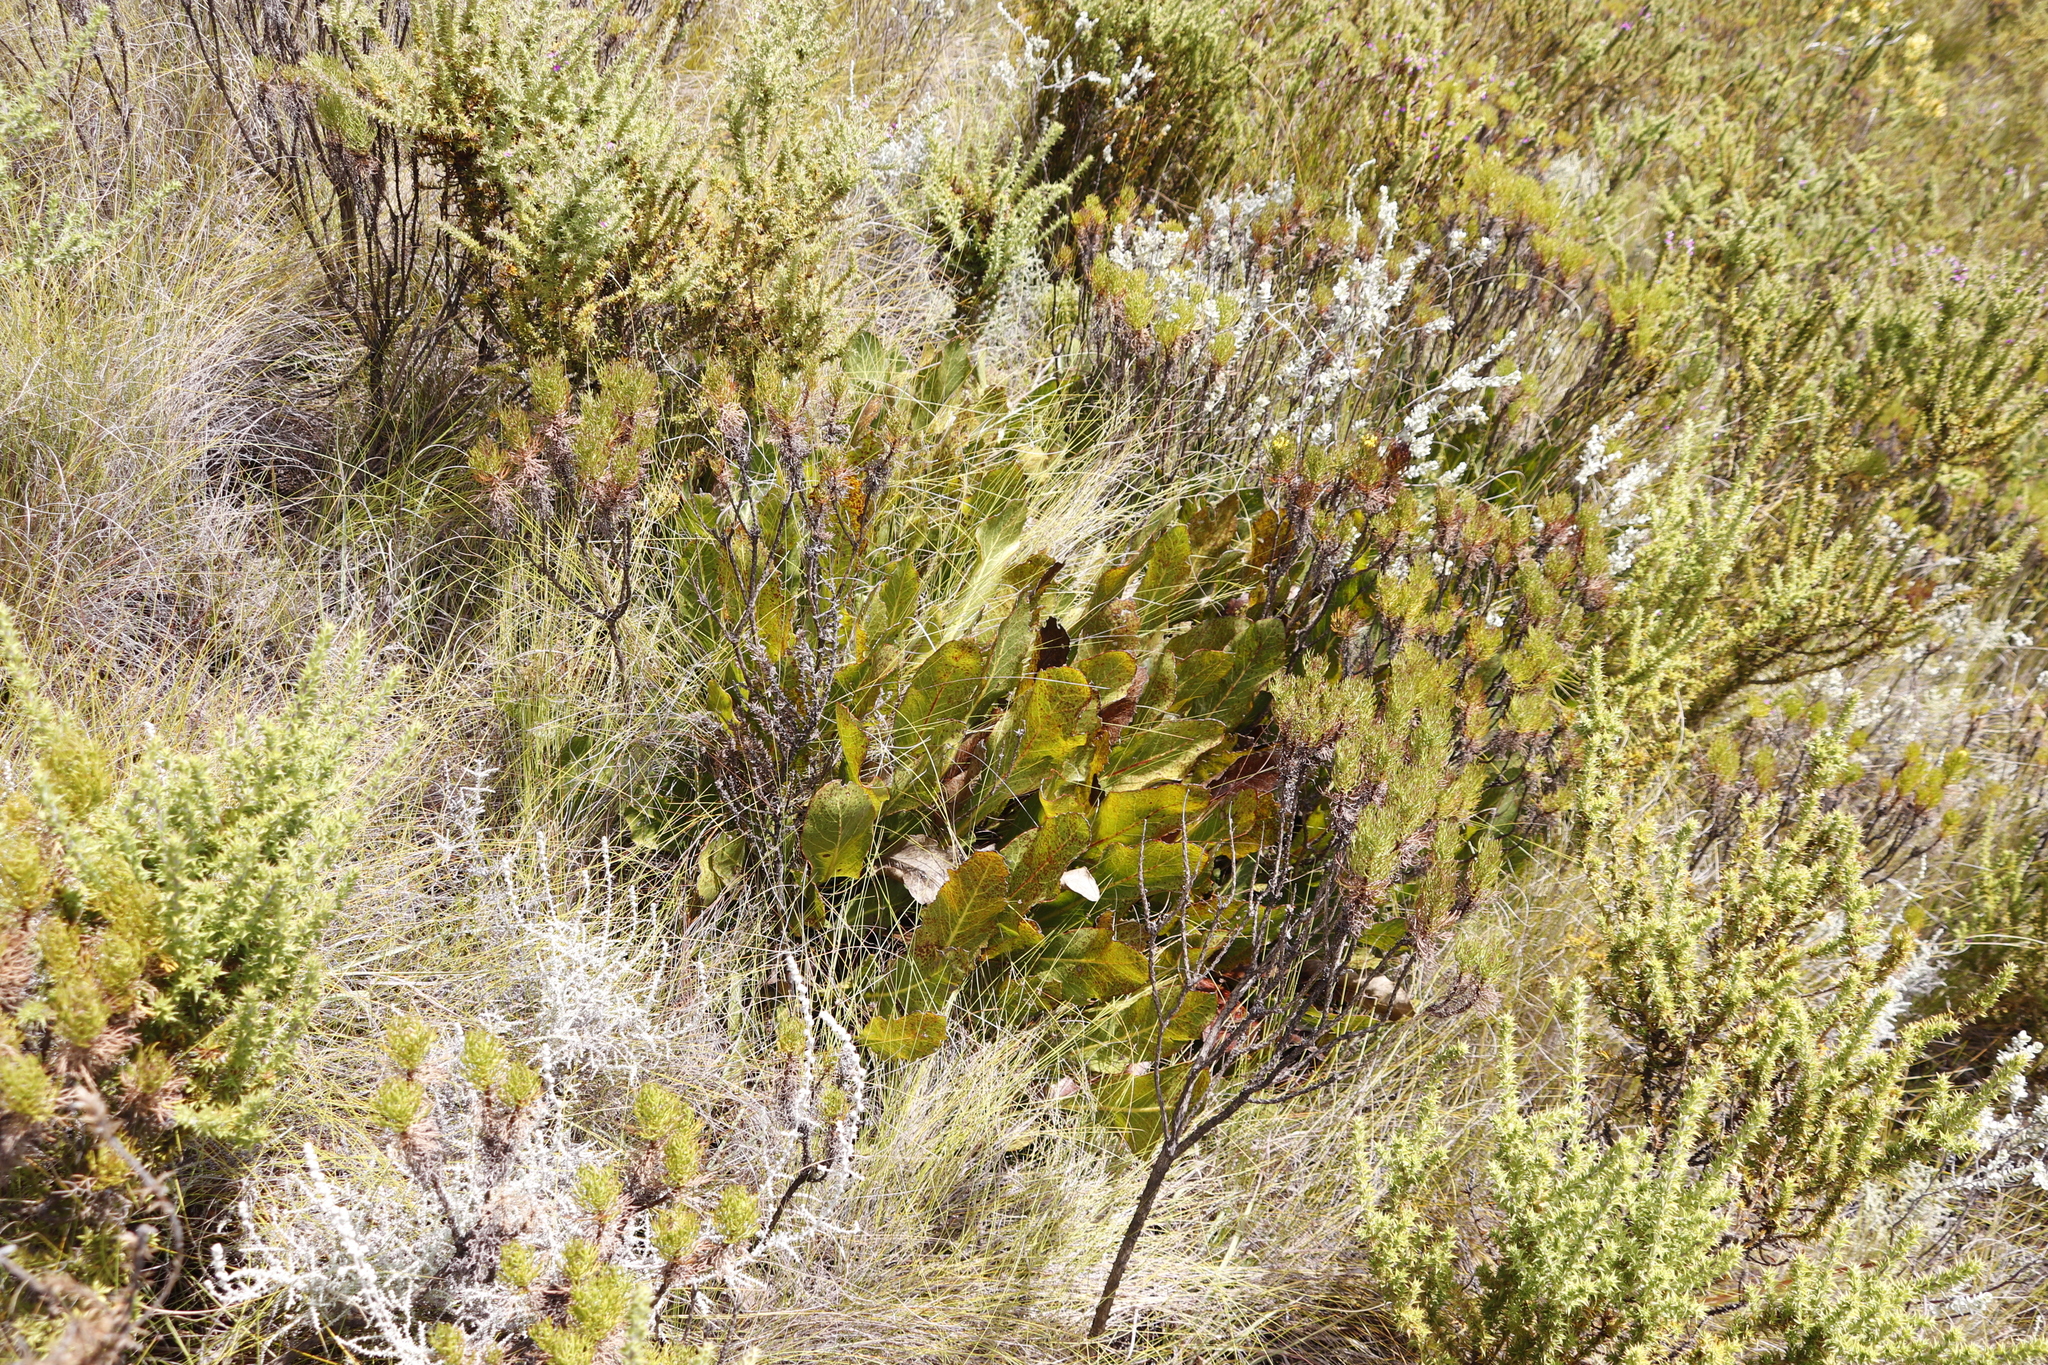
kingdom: Plantae
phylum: Tracheophyta
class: Magnoliopsida
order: Proteales
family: Proteaceae
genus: Protea
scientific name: Protea scolopendriifolia
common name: Harts-tongue-fern sugarbush
